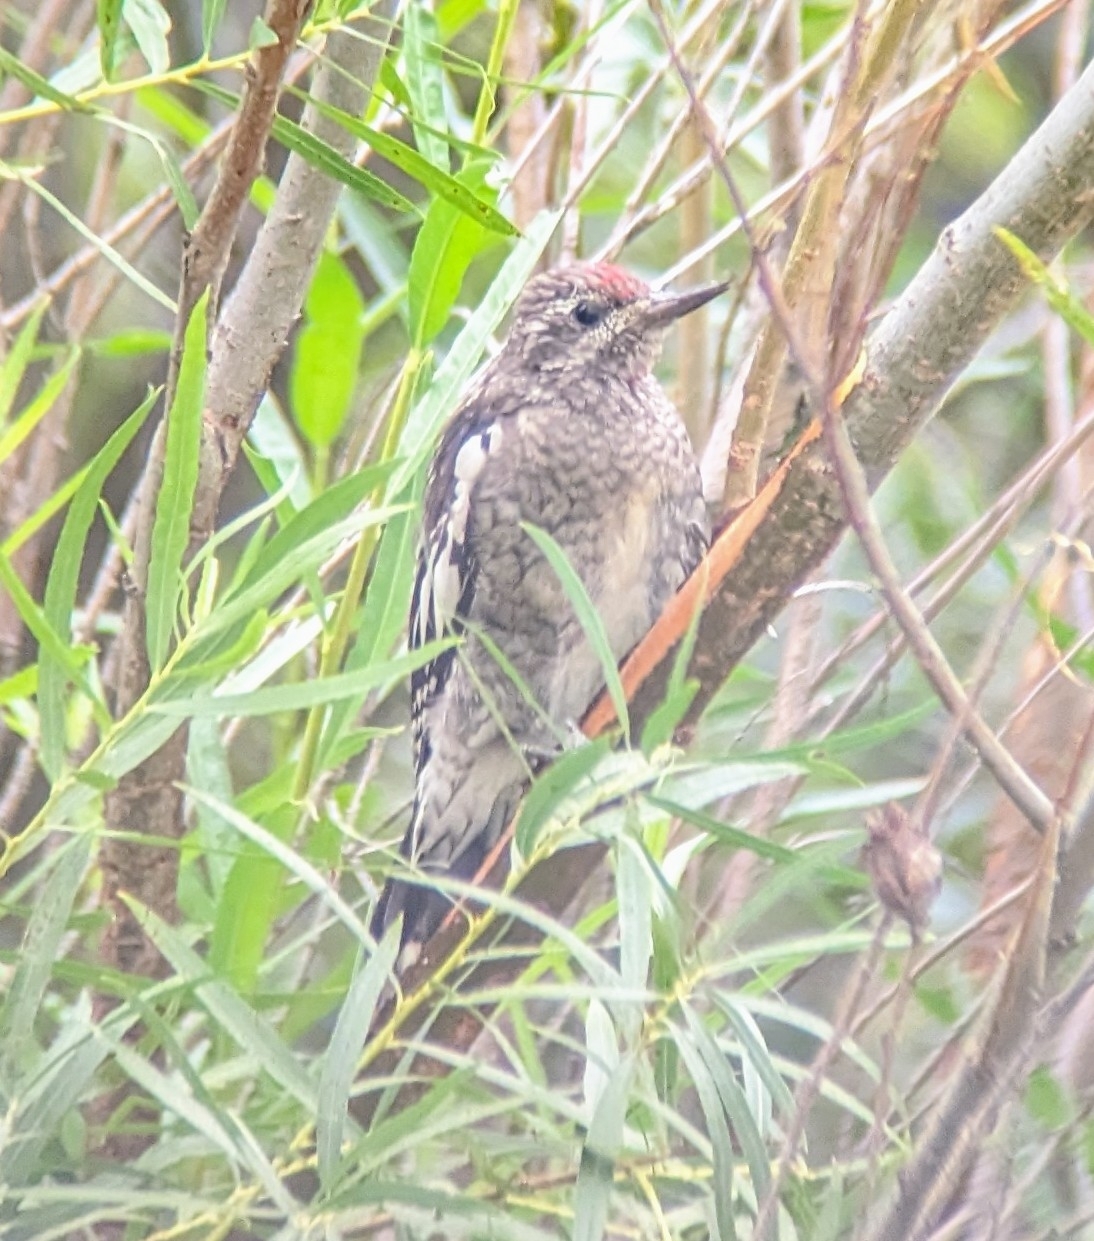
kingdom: Animalia
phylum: Chordata
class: Aves
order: Piciformes
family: Picidae
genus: Sphyrapicus
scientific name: Sphyrapicus nuchalis
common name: Red-naped sapsucker
